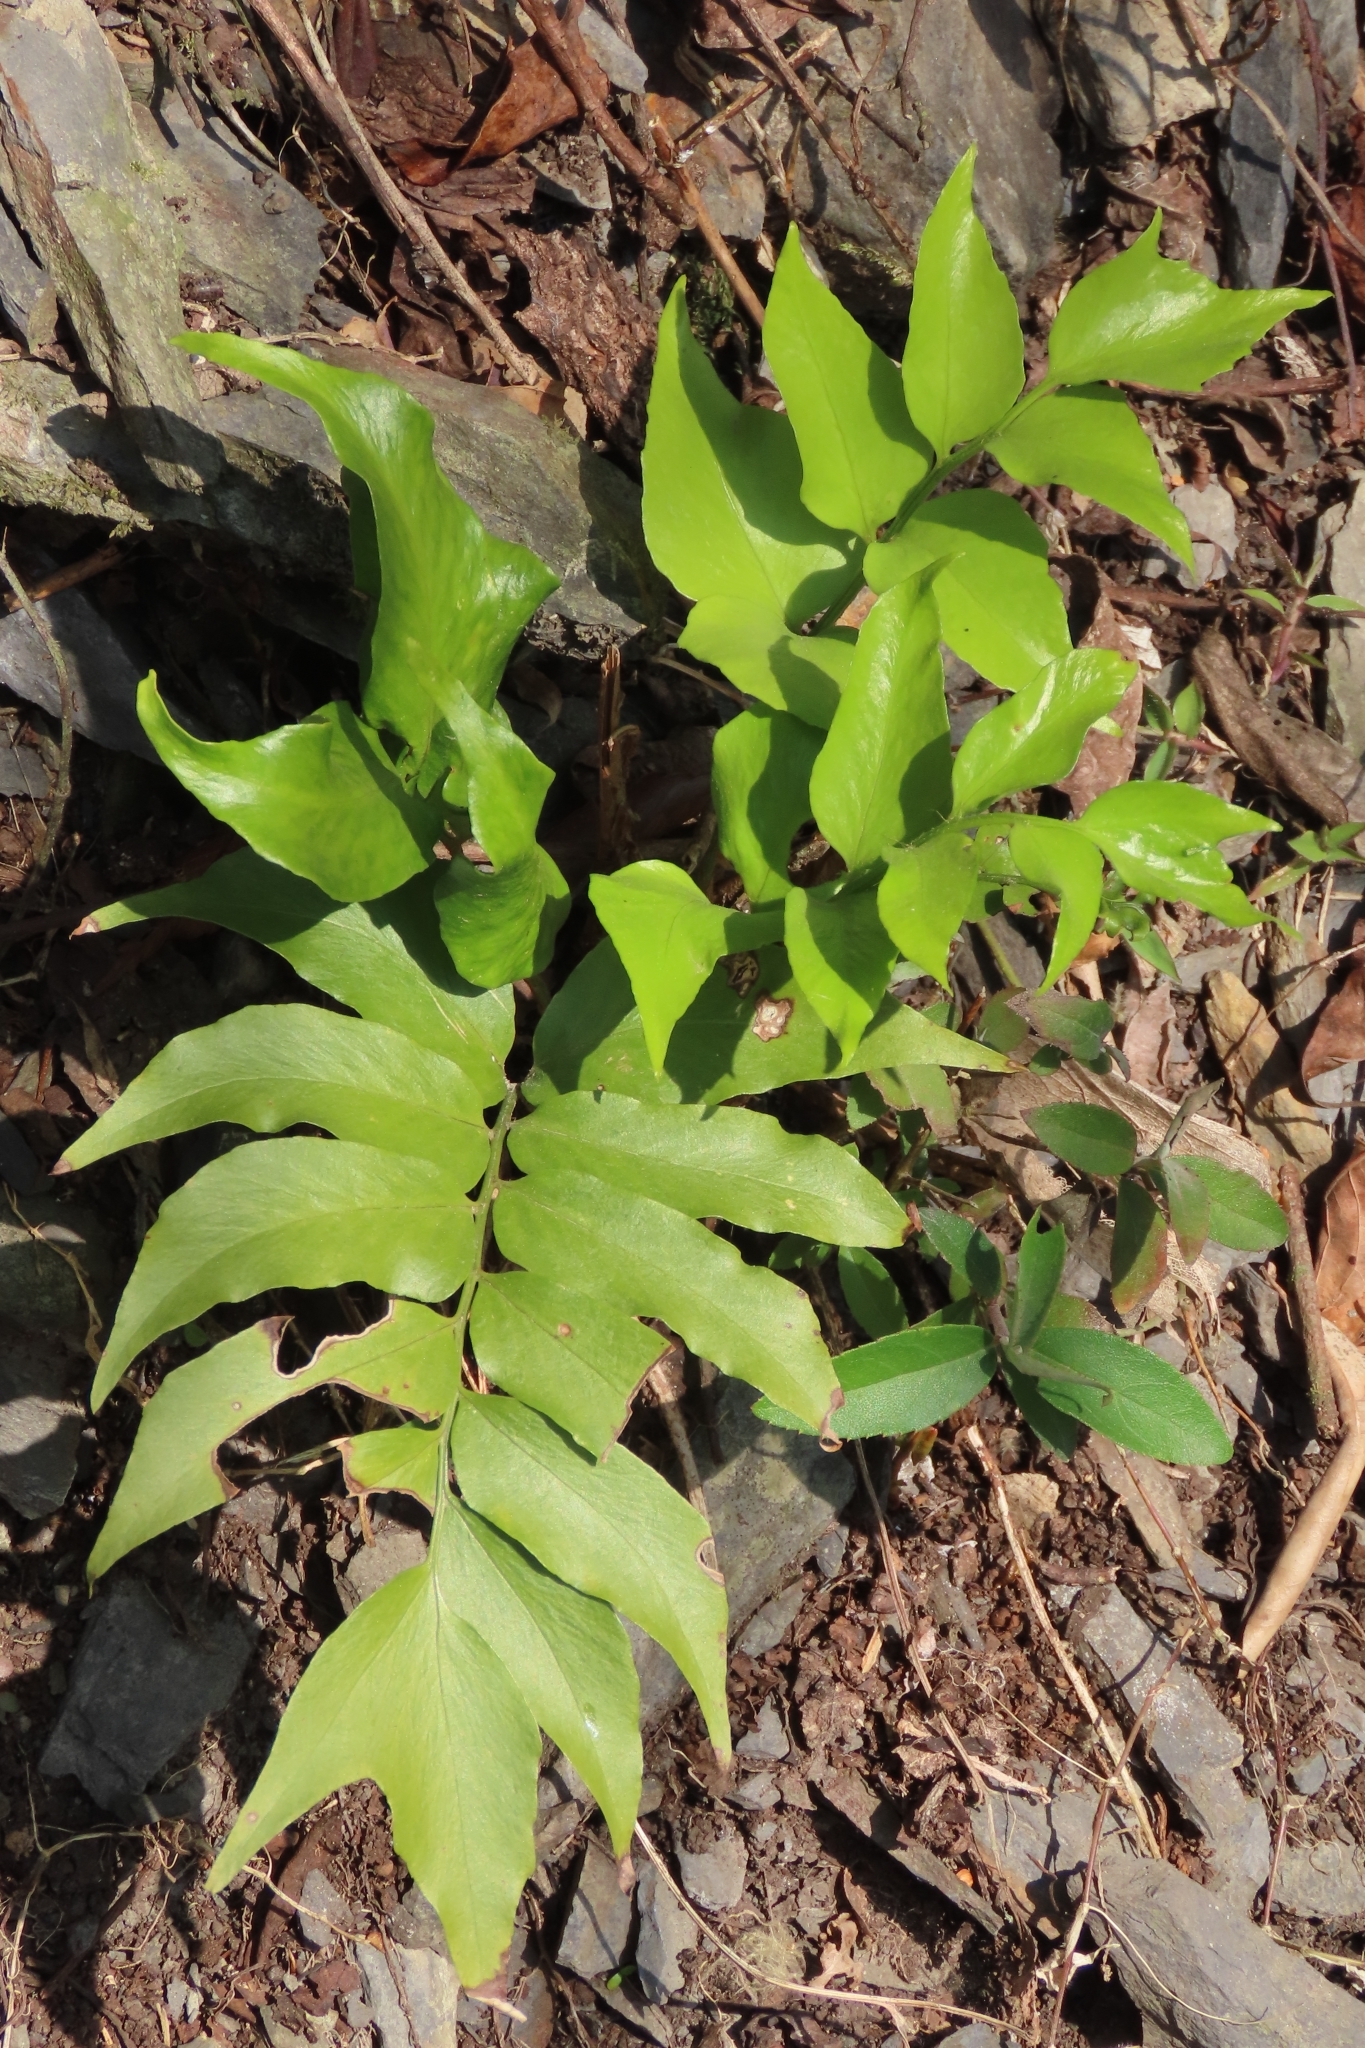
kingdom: Plantae
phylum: Tracheophyta
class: Polypodiopsida
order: Polypodiales
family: Dryopteridaceae
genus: Cyrtomium
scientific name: Cyrtomium falcatum
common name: House holly-fern
